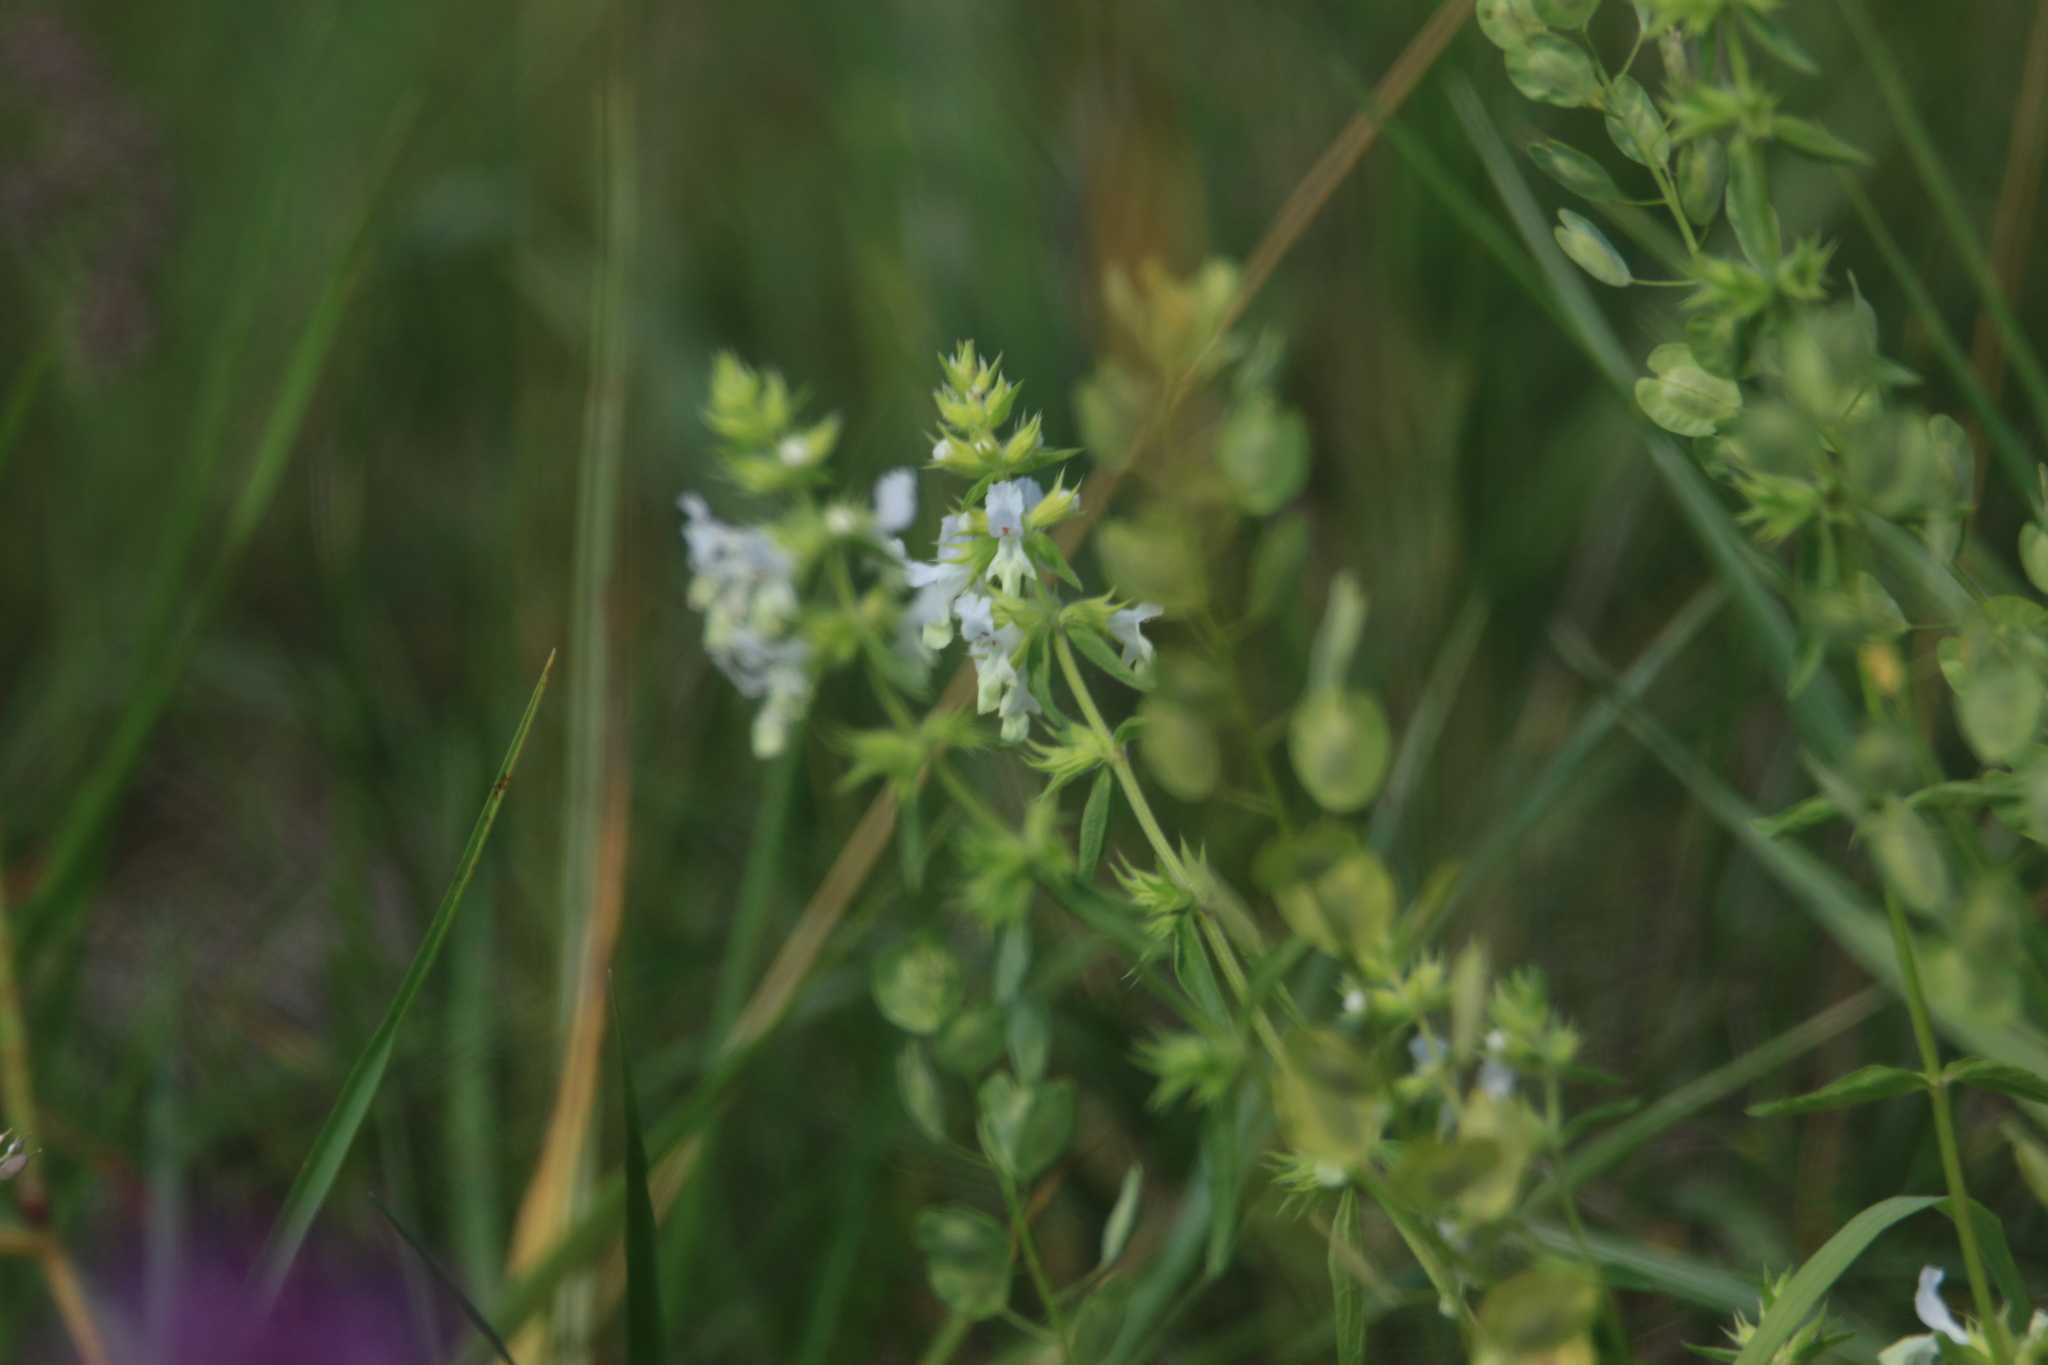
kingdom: Plantae
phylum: Tracheophyta
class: Magnoliopsida
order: Lamiales
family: Lamiaceae
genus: Stachys
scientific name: Stachys annua
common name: Annual yellow-woundwort
